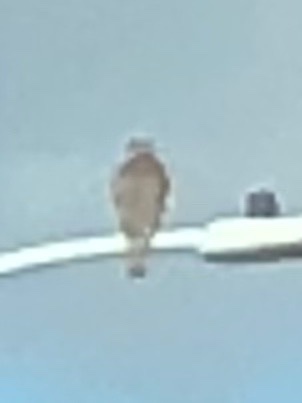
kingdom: Animalia
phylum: Chordata
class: Aves
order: Accipitriformes
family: Accipitridae
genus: Buteo
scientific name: Buteo lineatus
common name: Red-shouldered hawk
